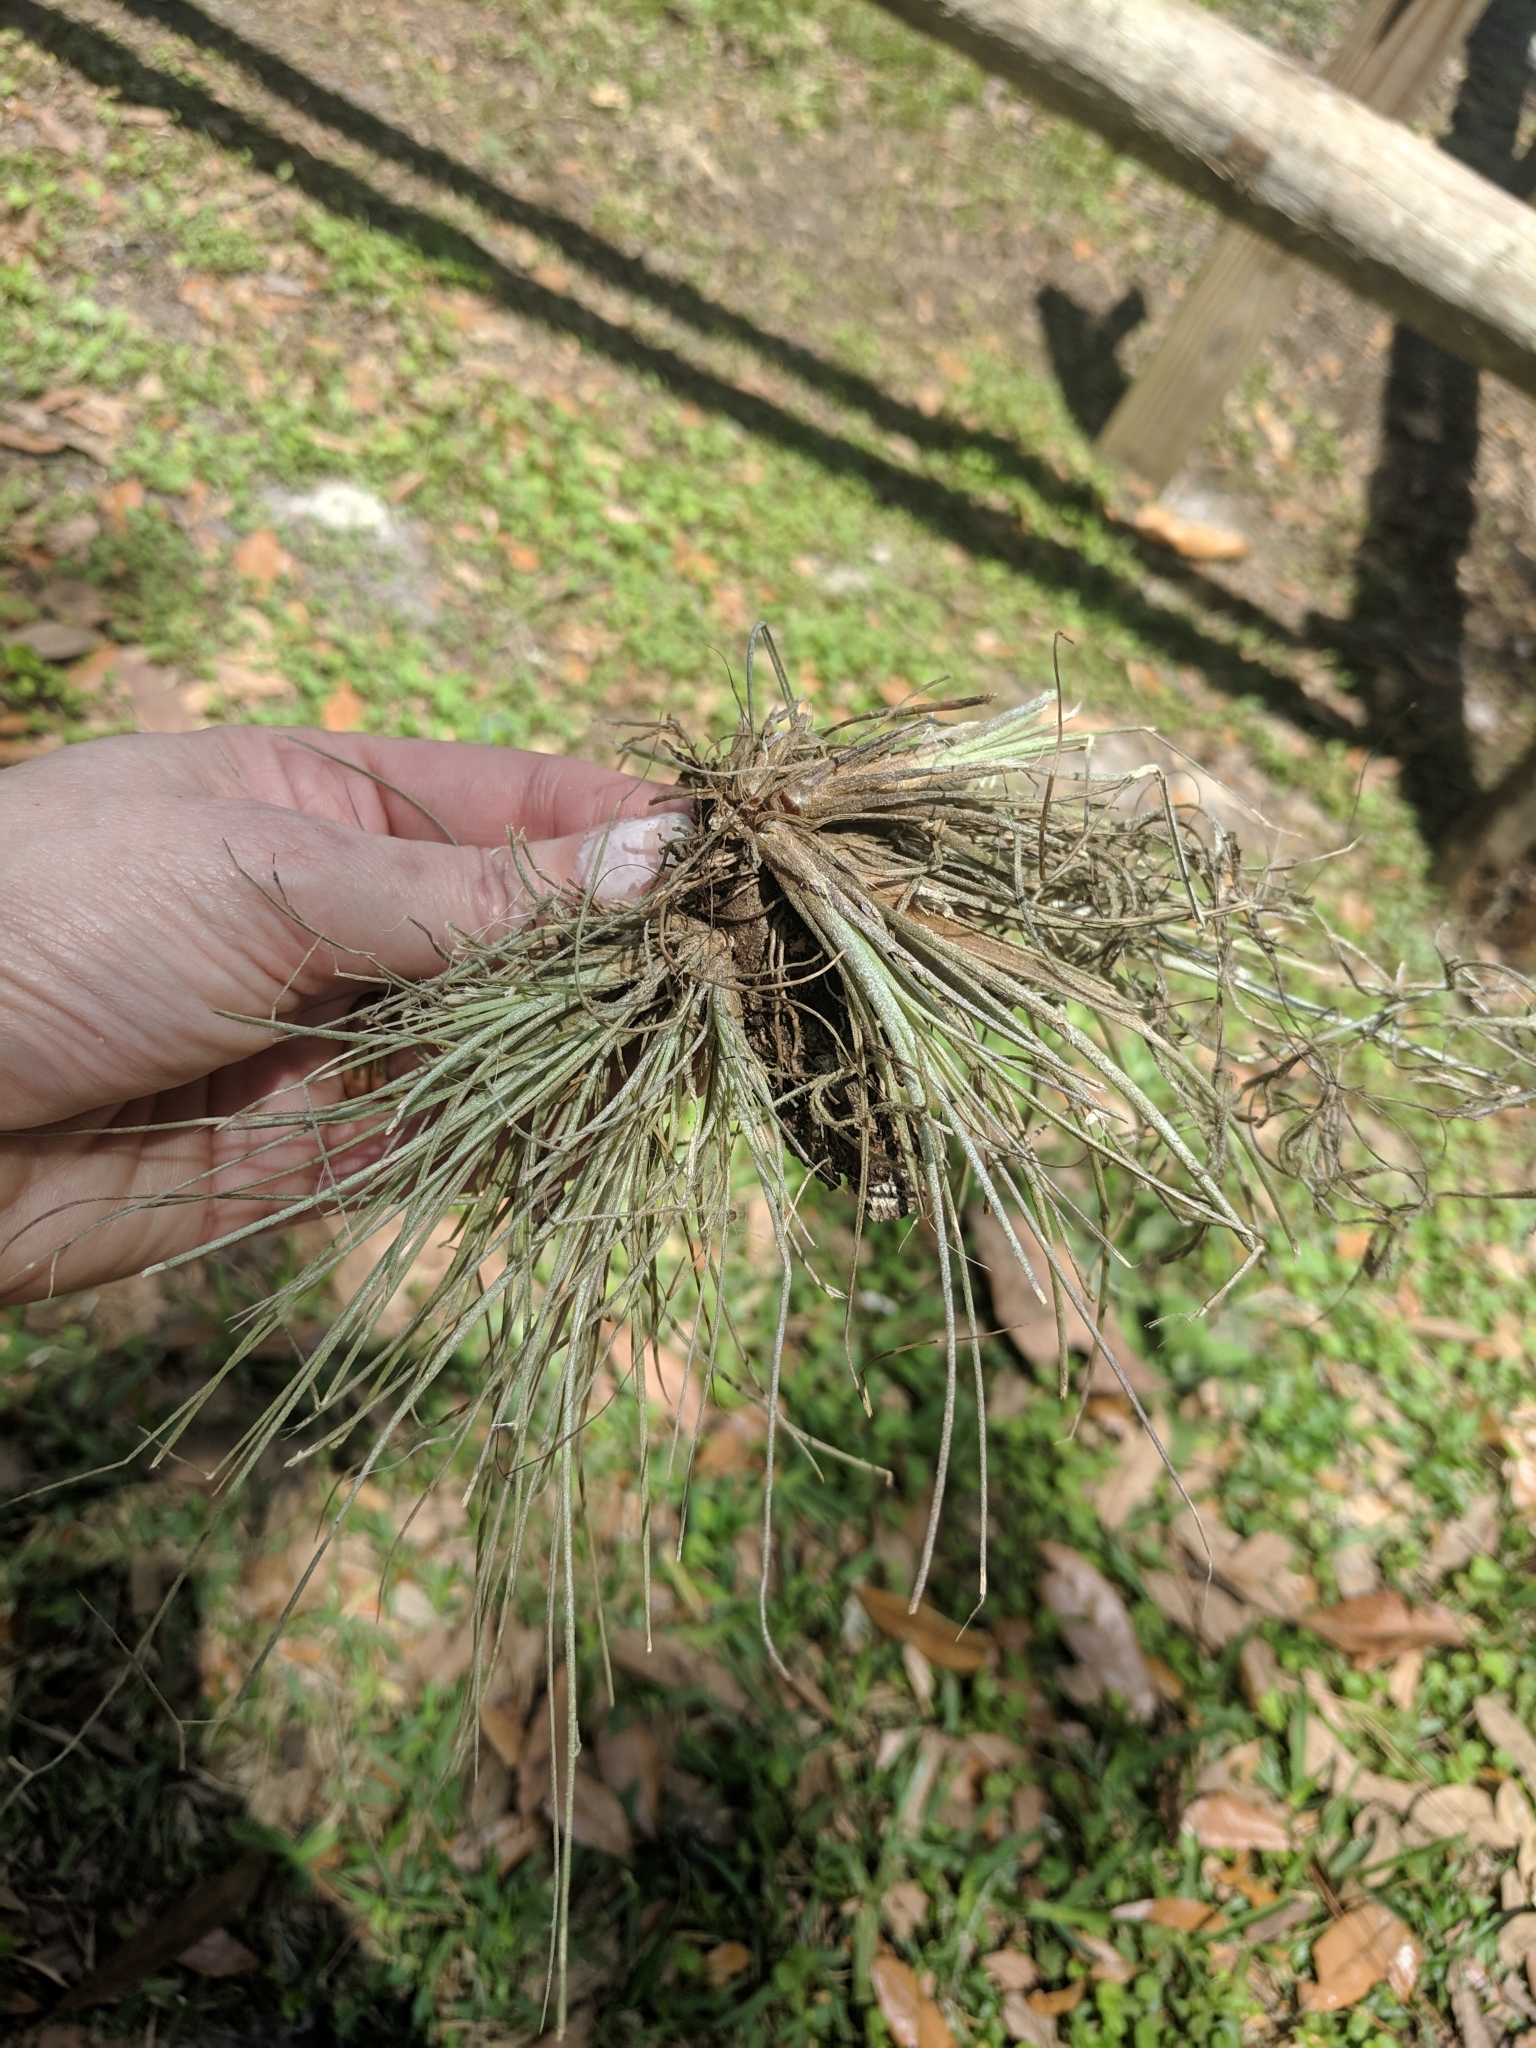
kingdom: Plantae
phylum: Tracheophyta
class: Liliopsida
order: Poales
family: Bromeliaceae
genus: Tillandsia
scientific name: Tillandsia bartramii
